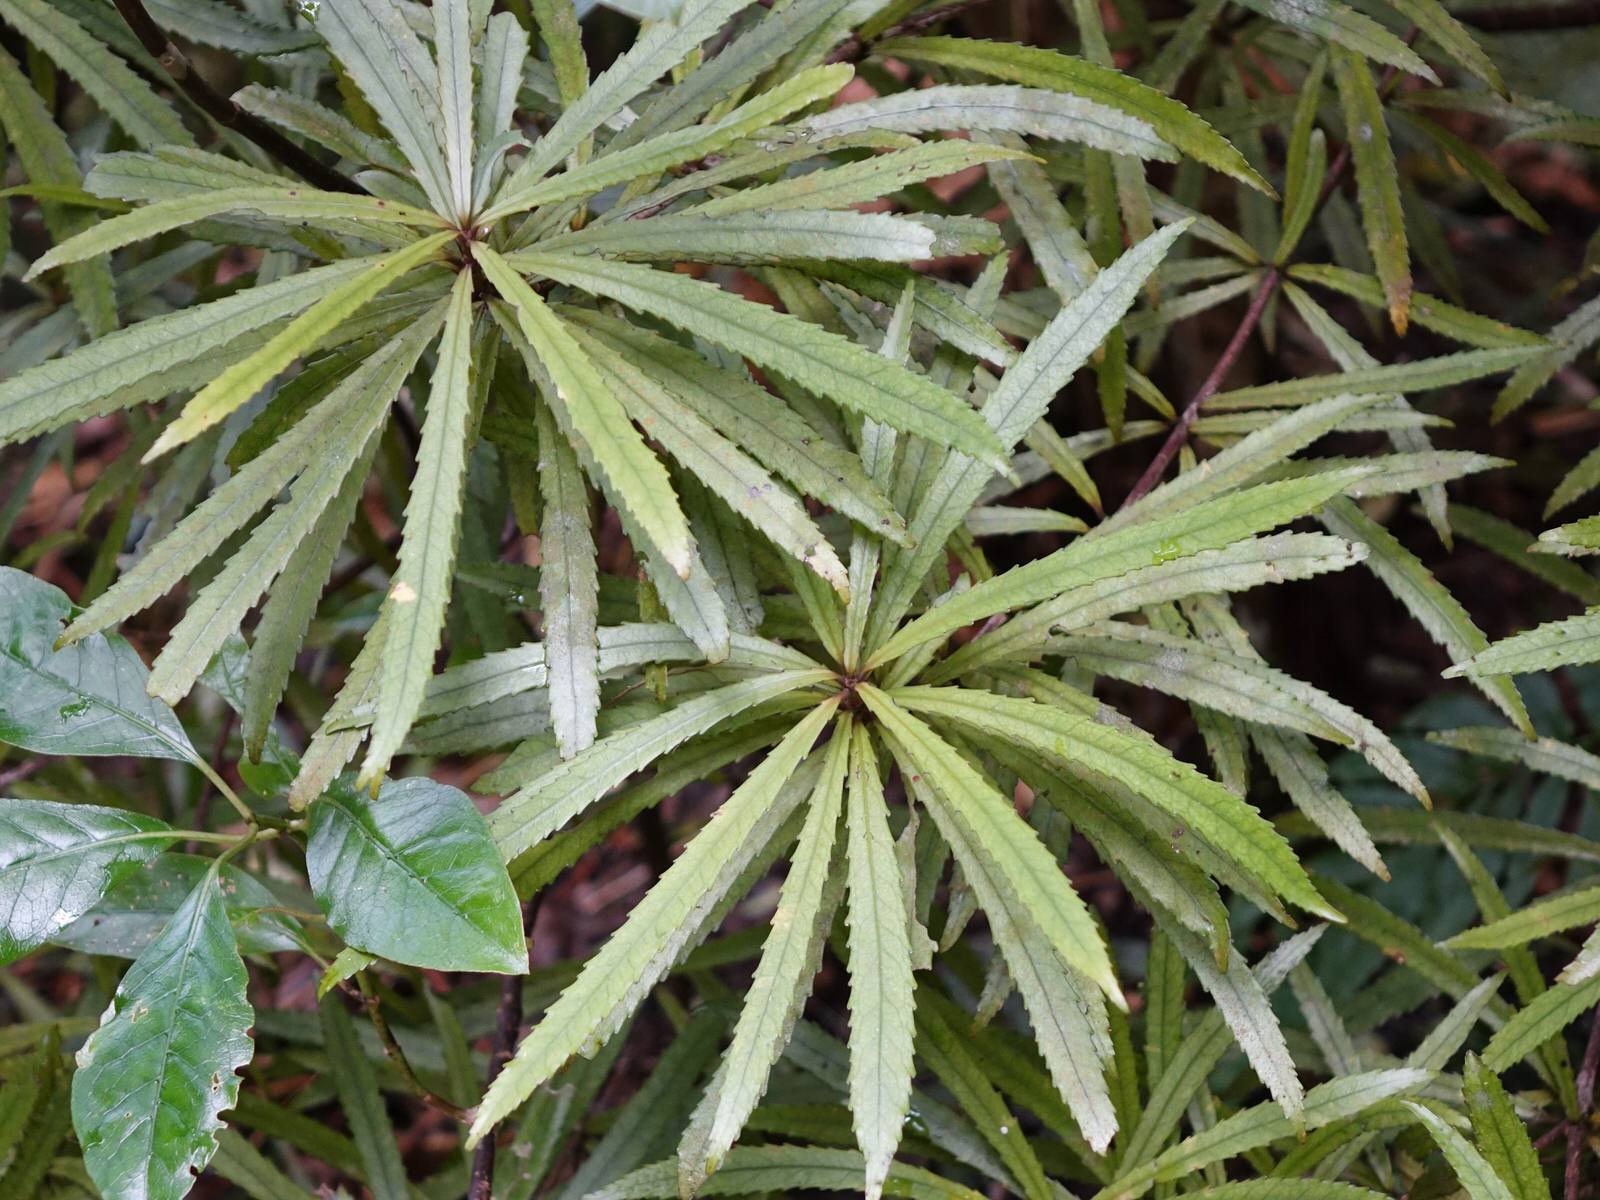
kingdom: Plantae
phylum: Tracheophyta
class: Magnoliopsida
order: Crossosomatales
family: Ixerbaceae
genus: Ixerba
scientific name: Ixerba brexioides
